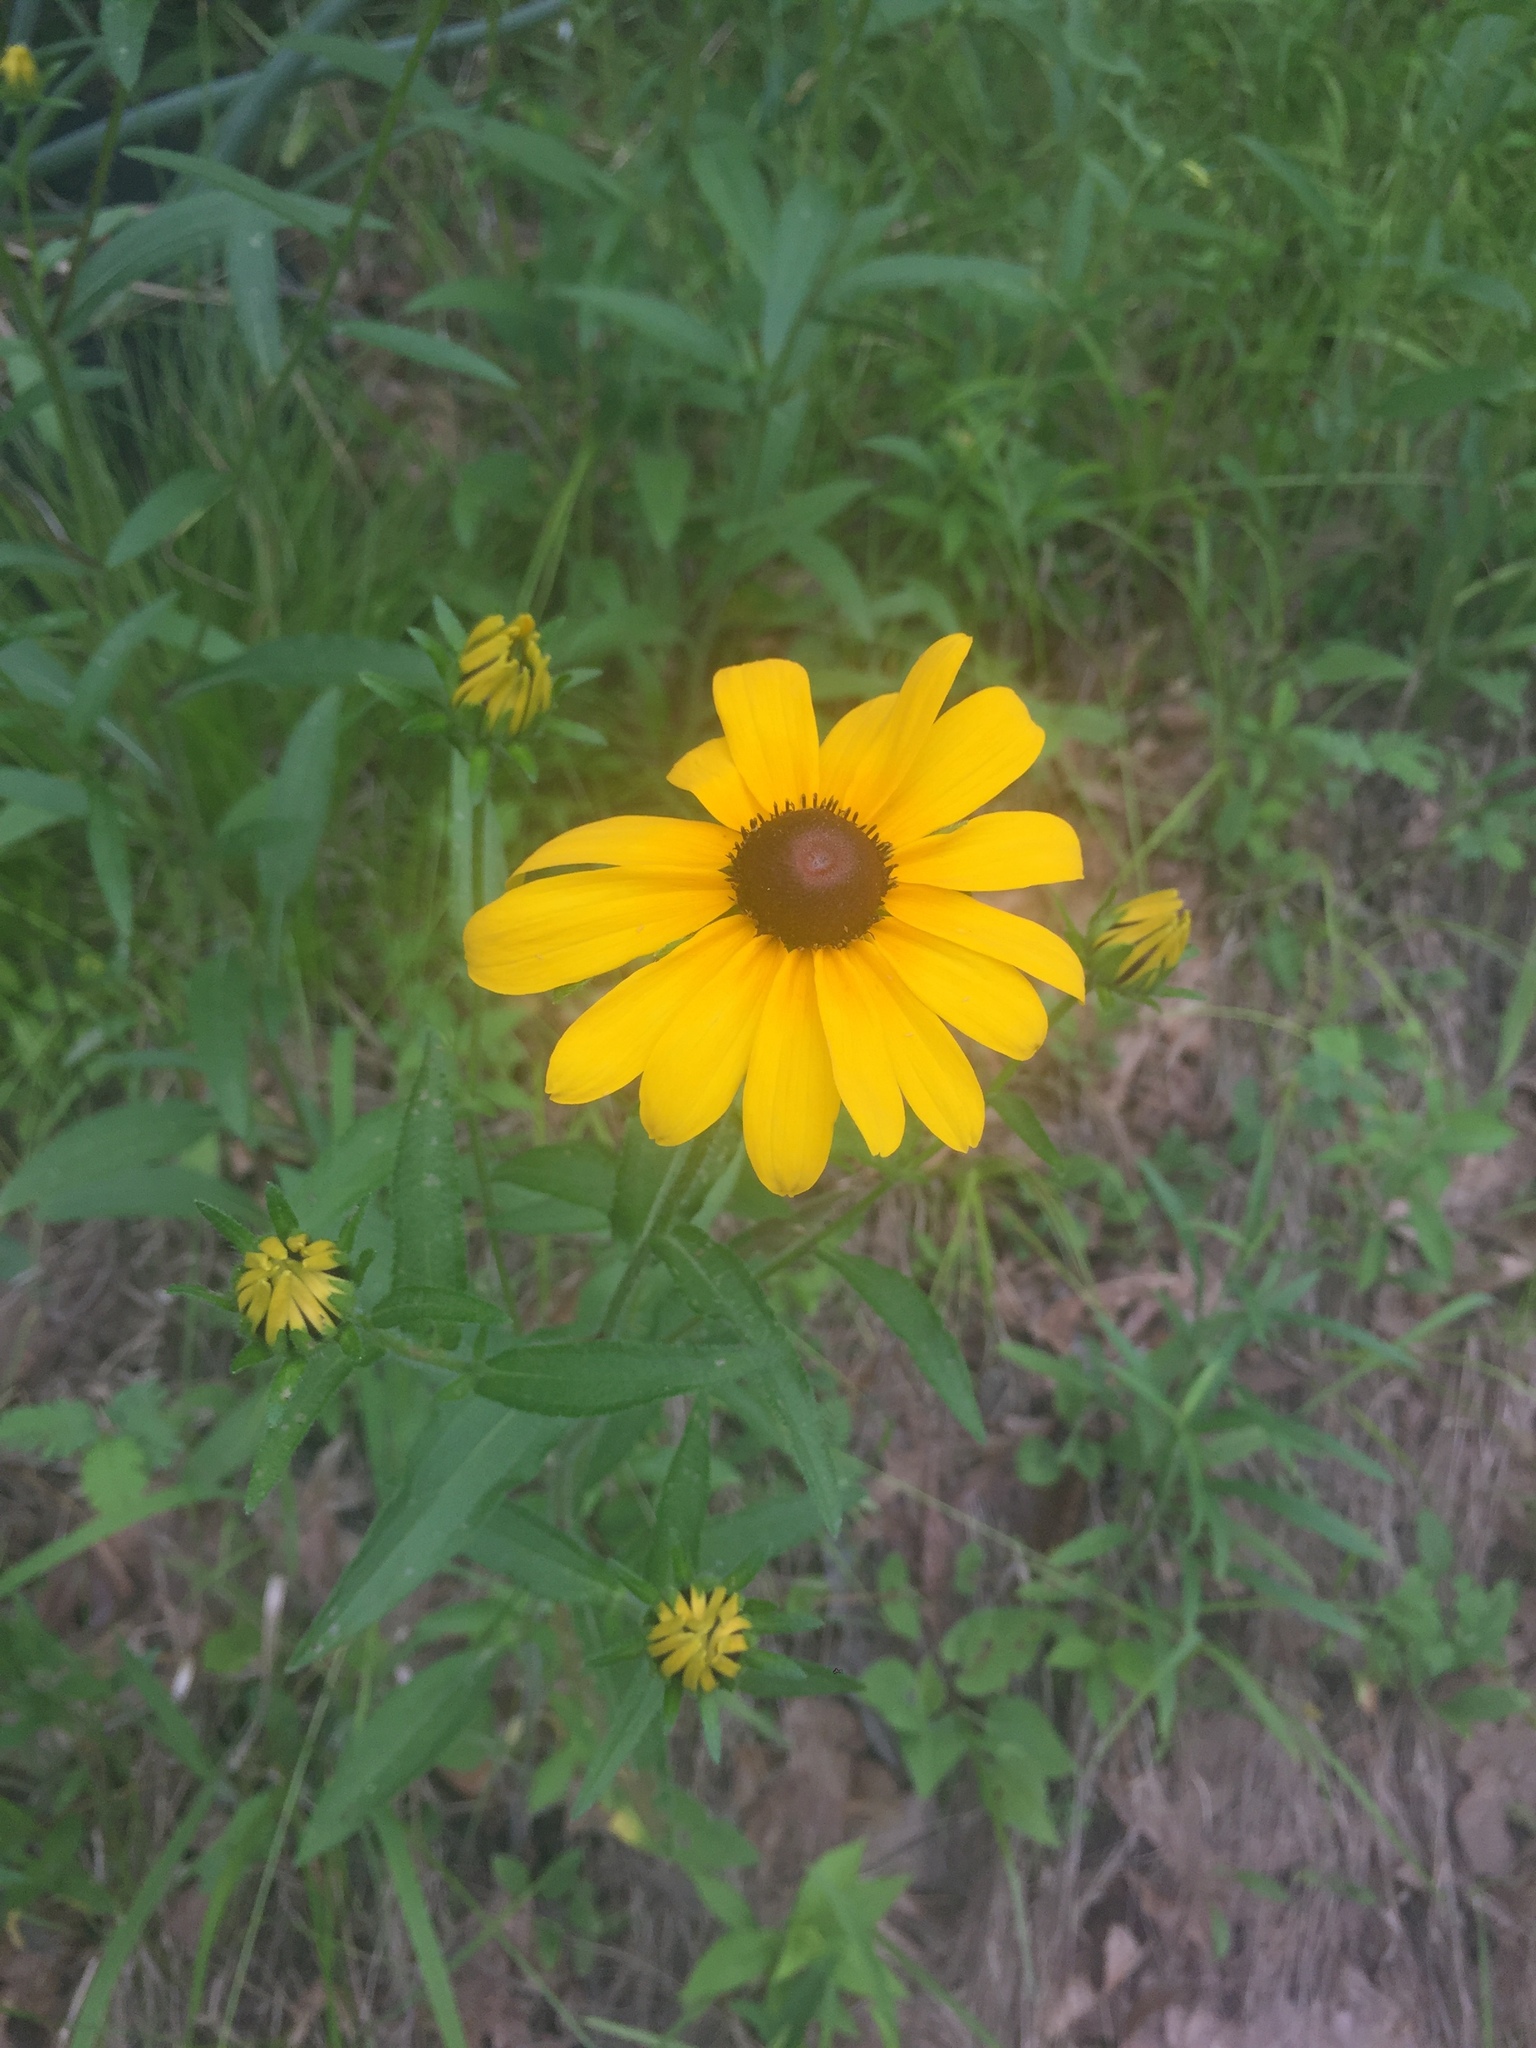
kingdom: Plantae
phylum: Tracheophyta
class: Magnoliopsida
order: Asterales
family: Asteraceae
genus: Rudbeckia
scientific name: Rudbeckia hirta
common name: Black-eyed-susan
